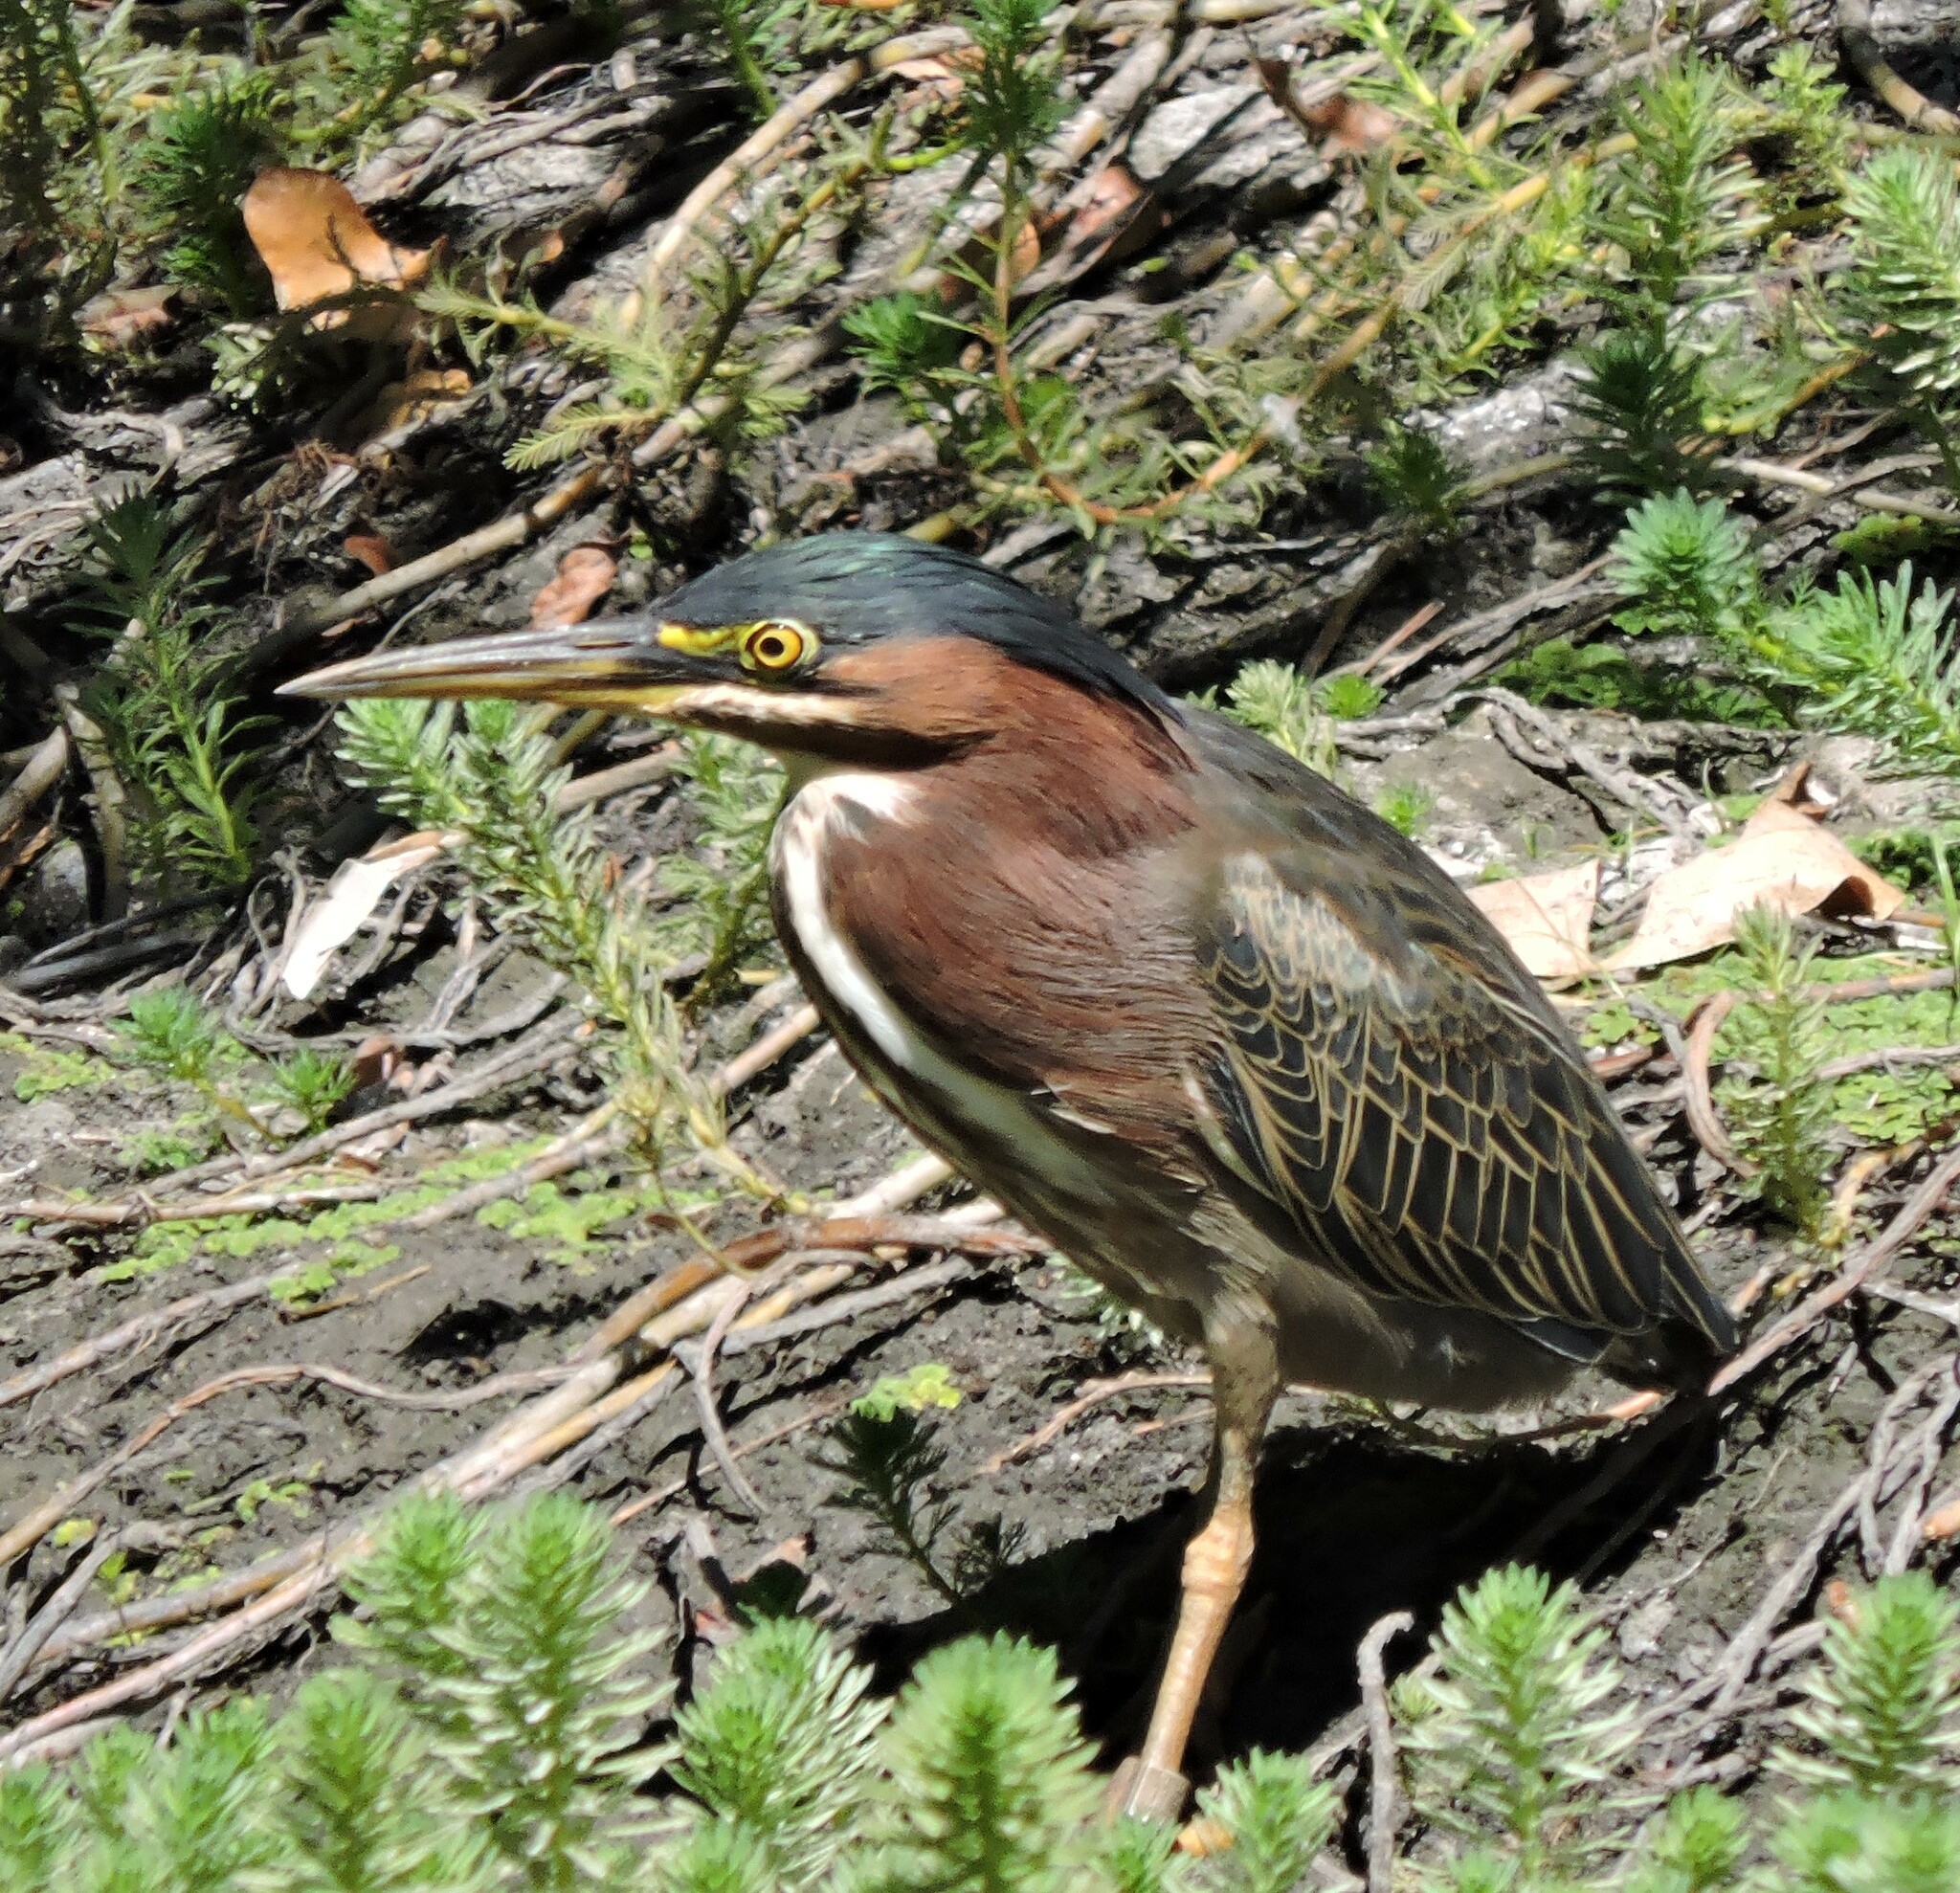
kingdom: Animalia
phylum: Chordata
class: Aves
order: Pelecaniformes
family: Ardeidae
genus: Butorides
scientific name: Butorides virescens
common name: Green heron
